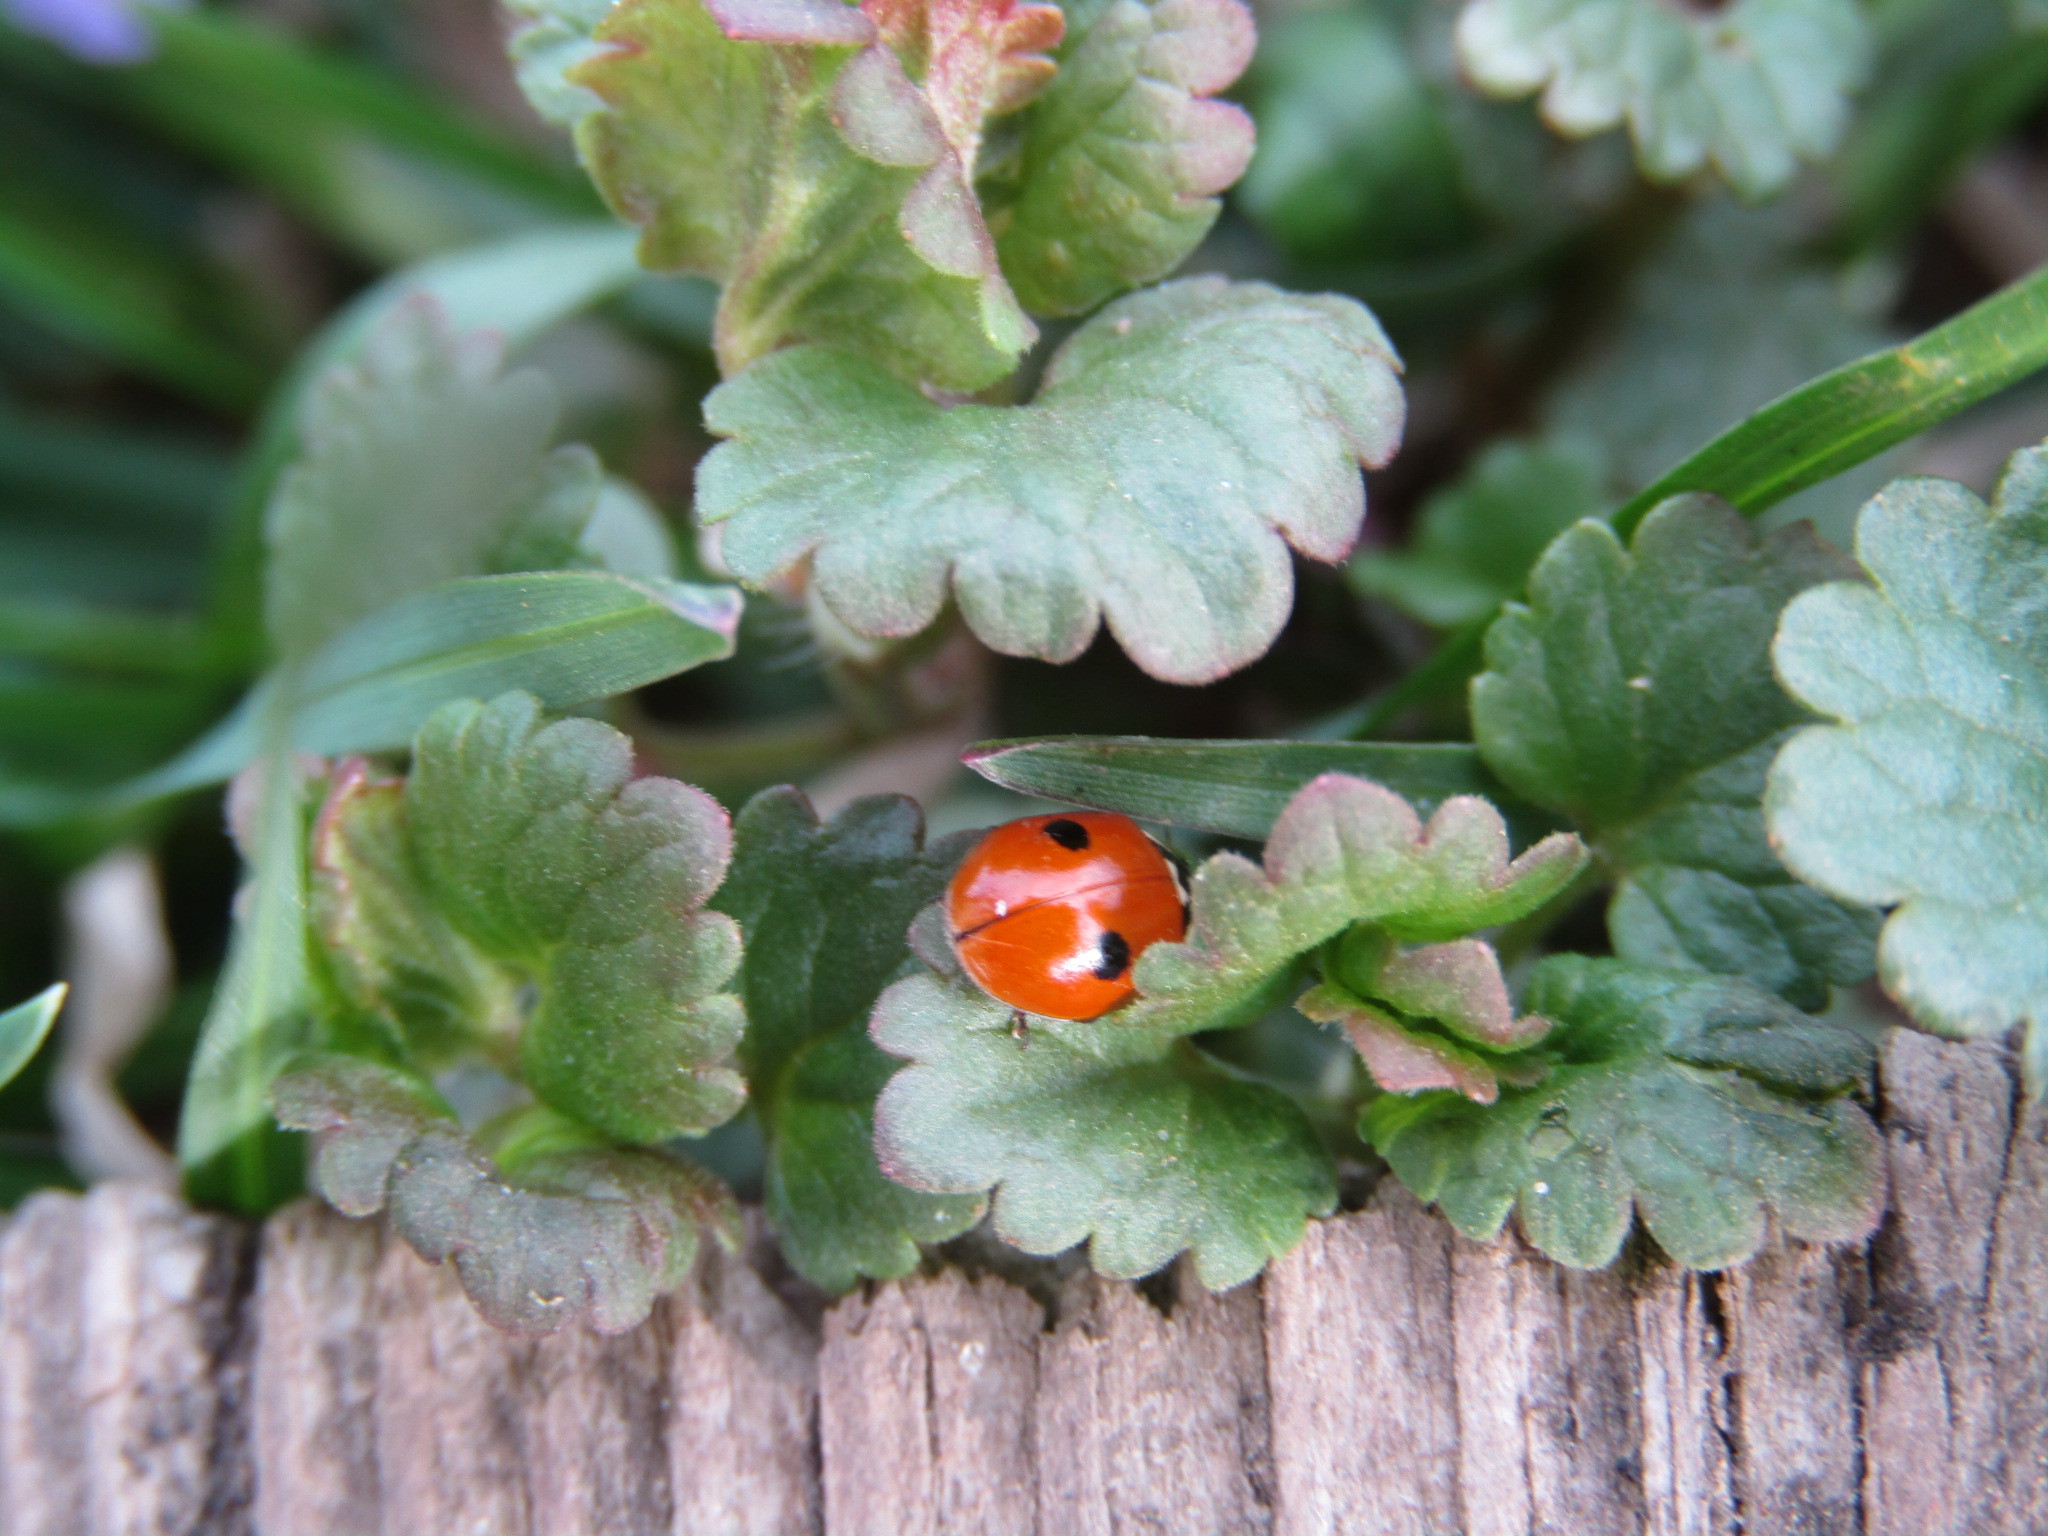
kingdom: Animalia
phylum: Arthropoda
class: Insecta
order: Coleoptera
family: Coccinellidae
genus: Adalia
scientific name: Adalia bipunctata
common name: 2-spot ladybird
